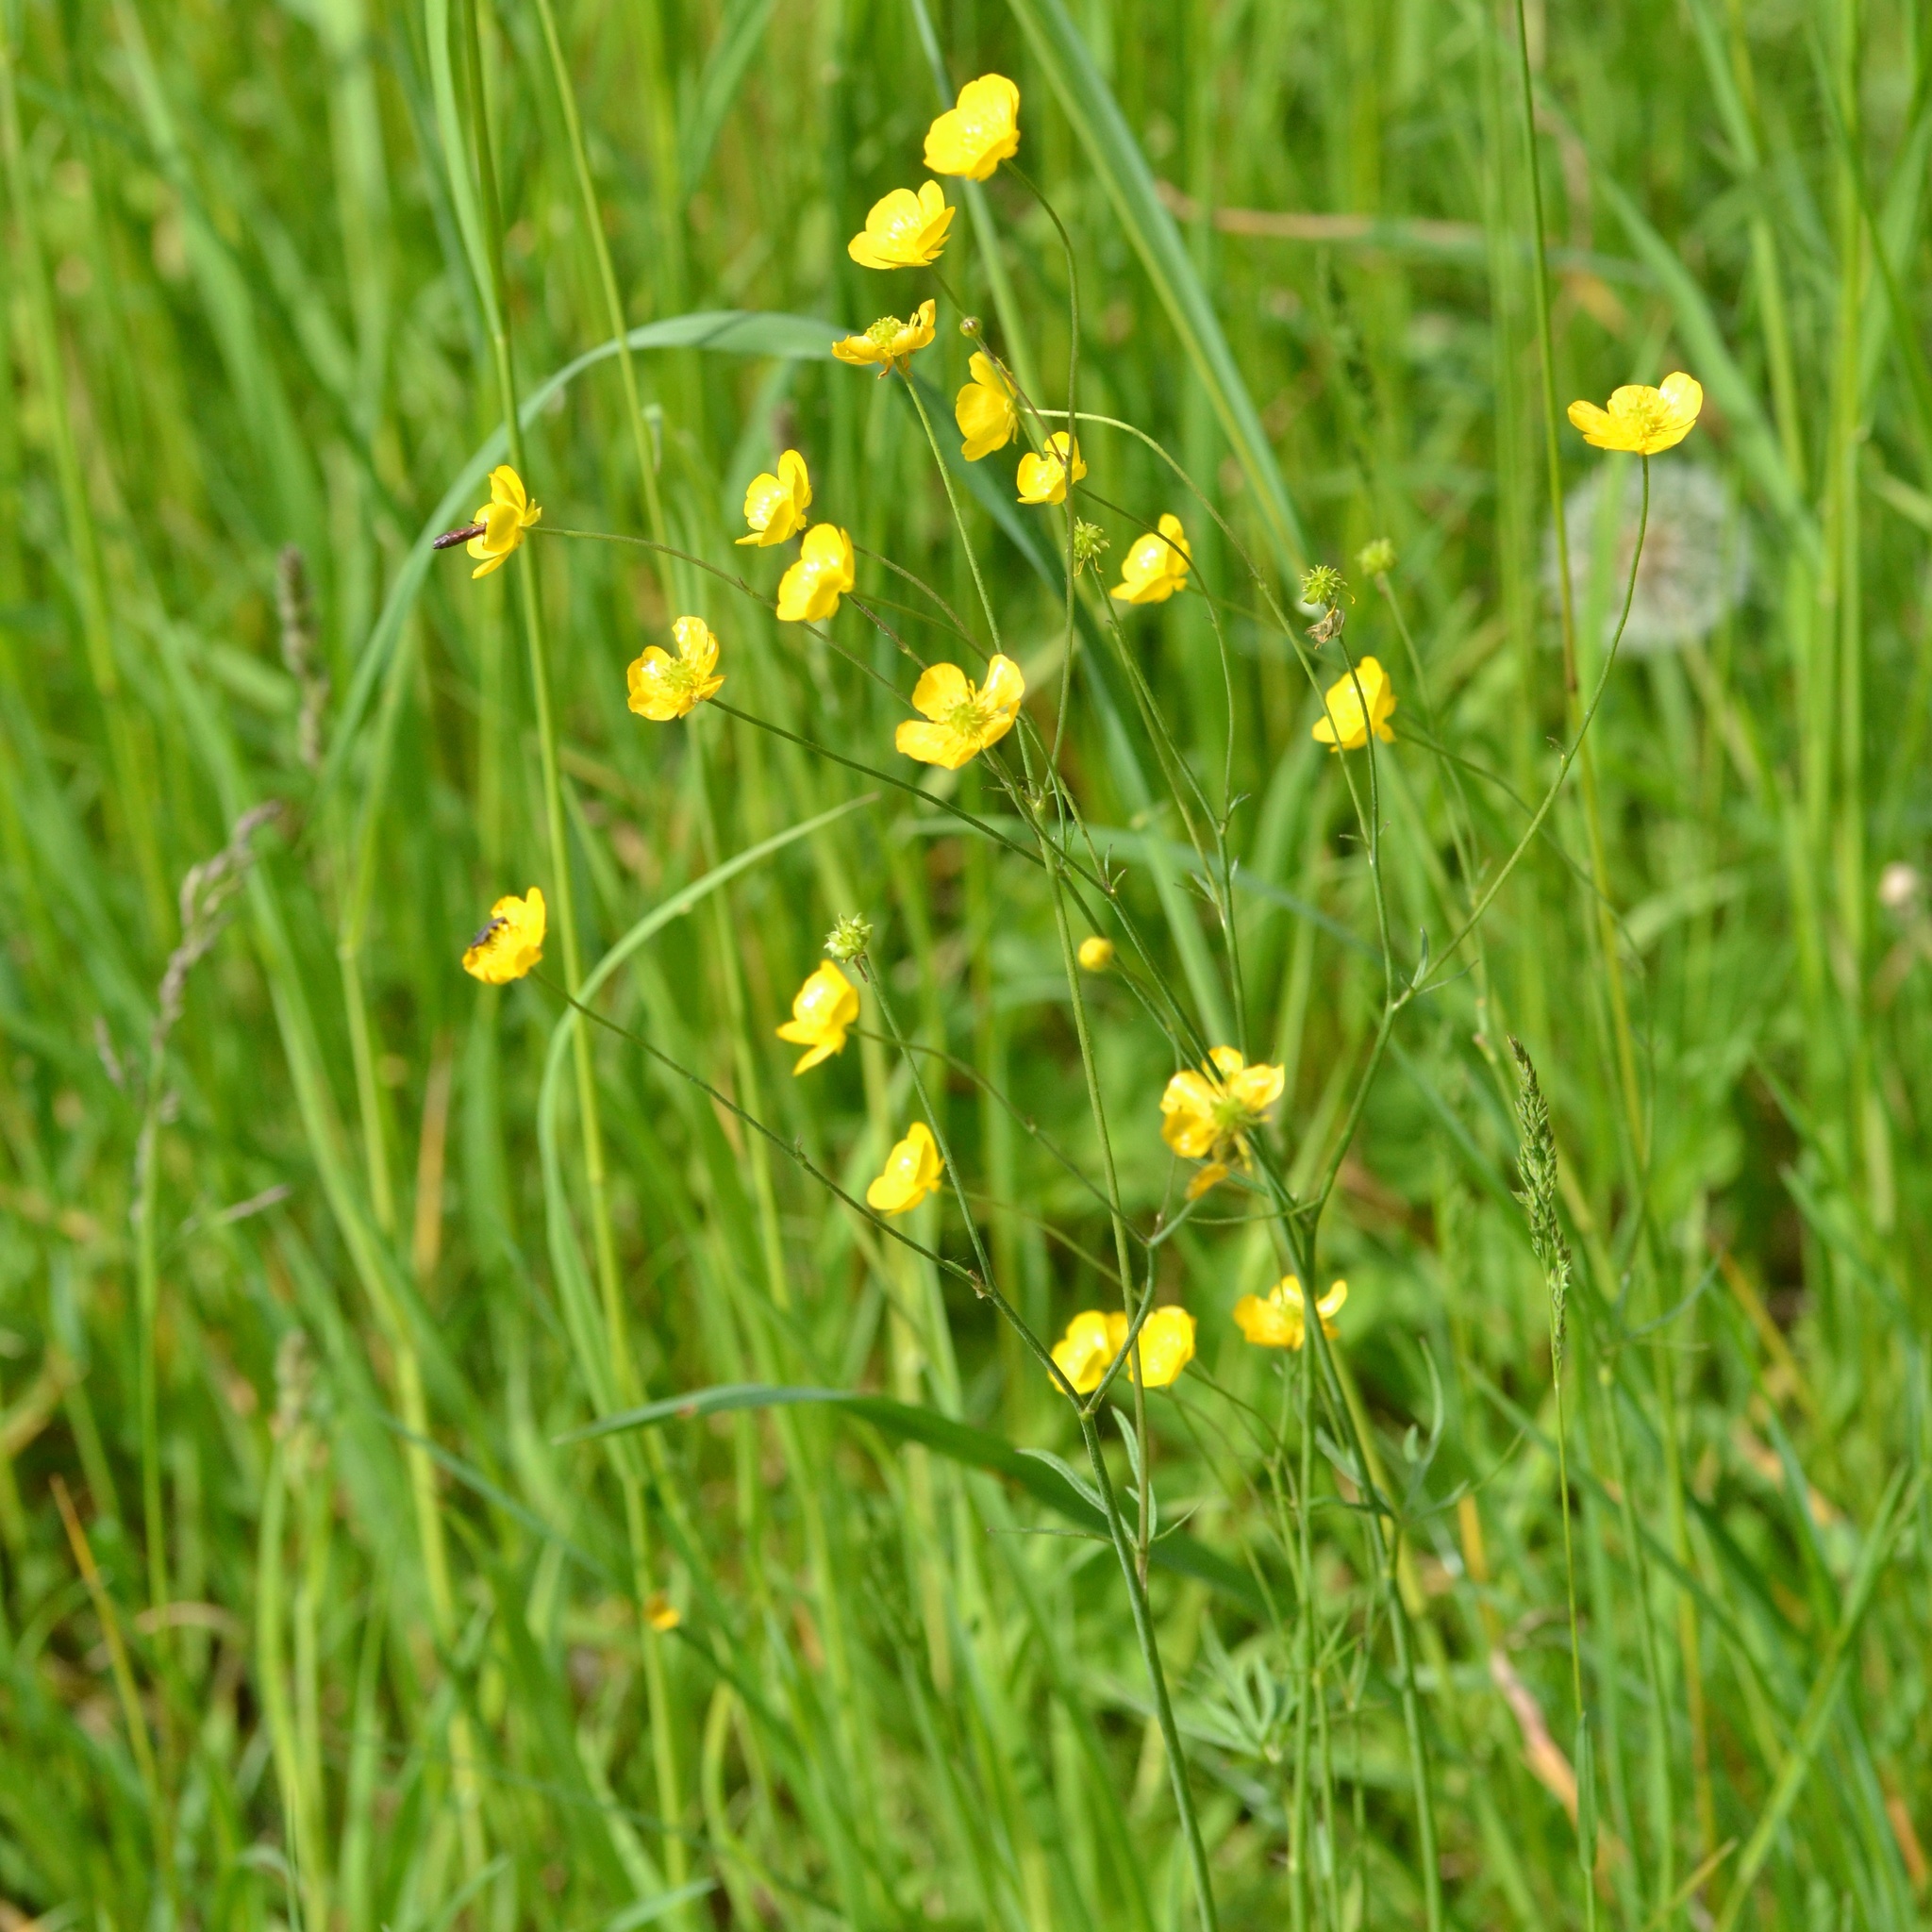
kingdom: Plantae
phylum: Tracheophyta
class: Magnoliopsida
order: Ranunculales
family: Ranunculaceae
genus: Ranunculus
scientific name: Ranunculus acris
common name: Meadow buttercup
